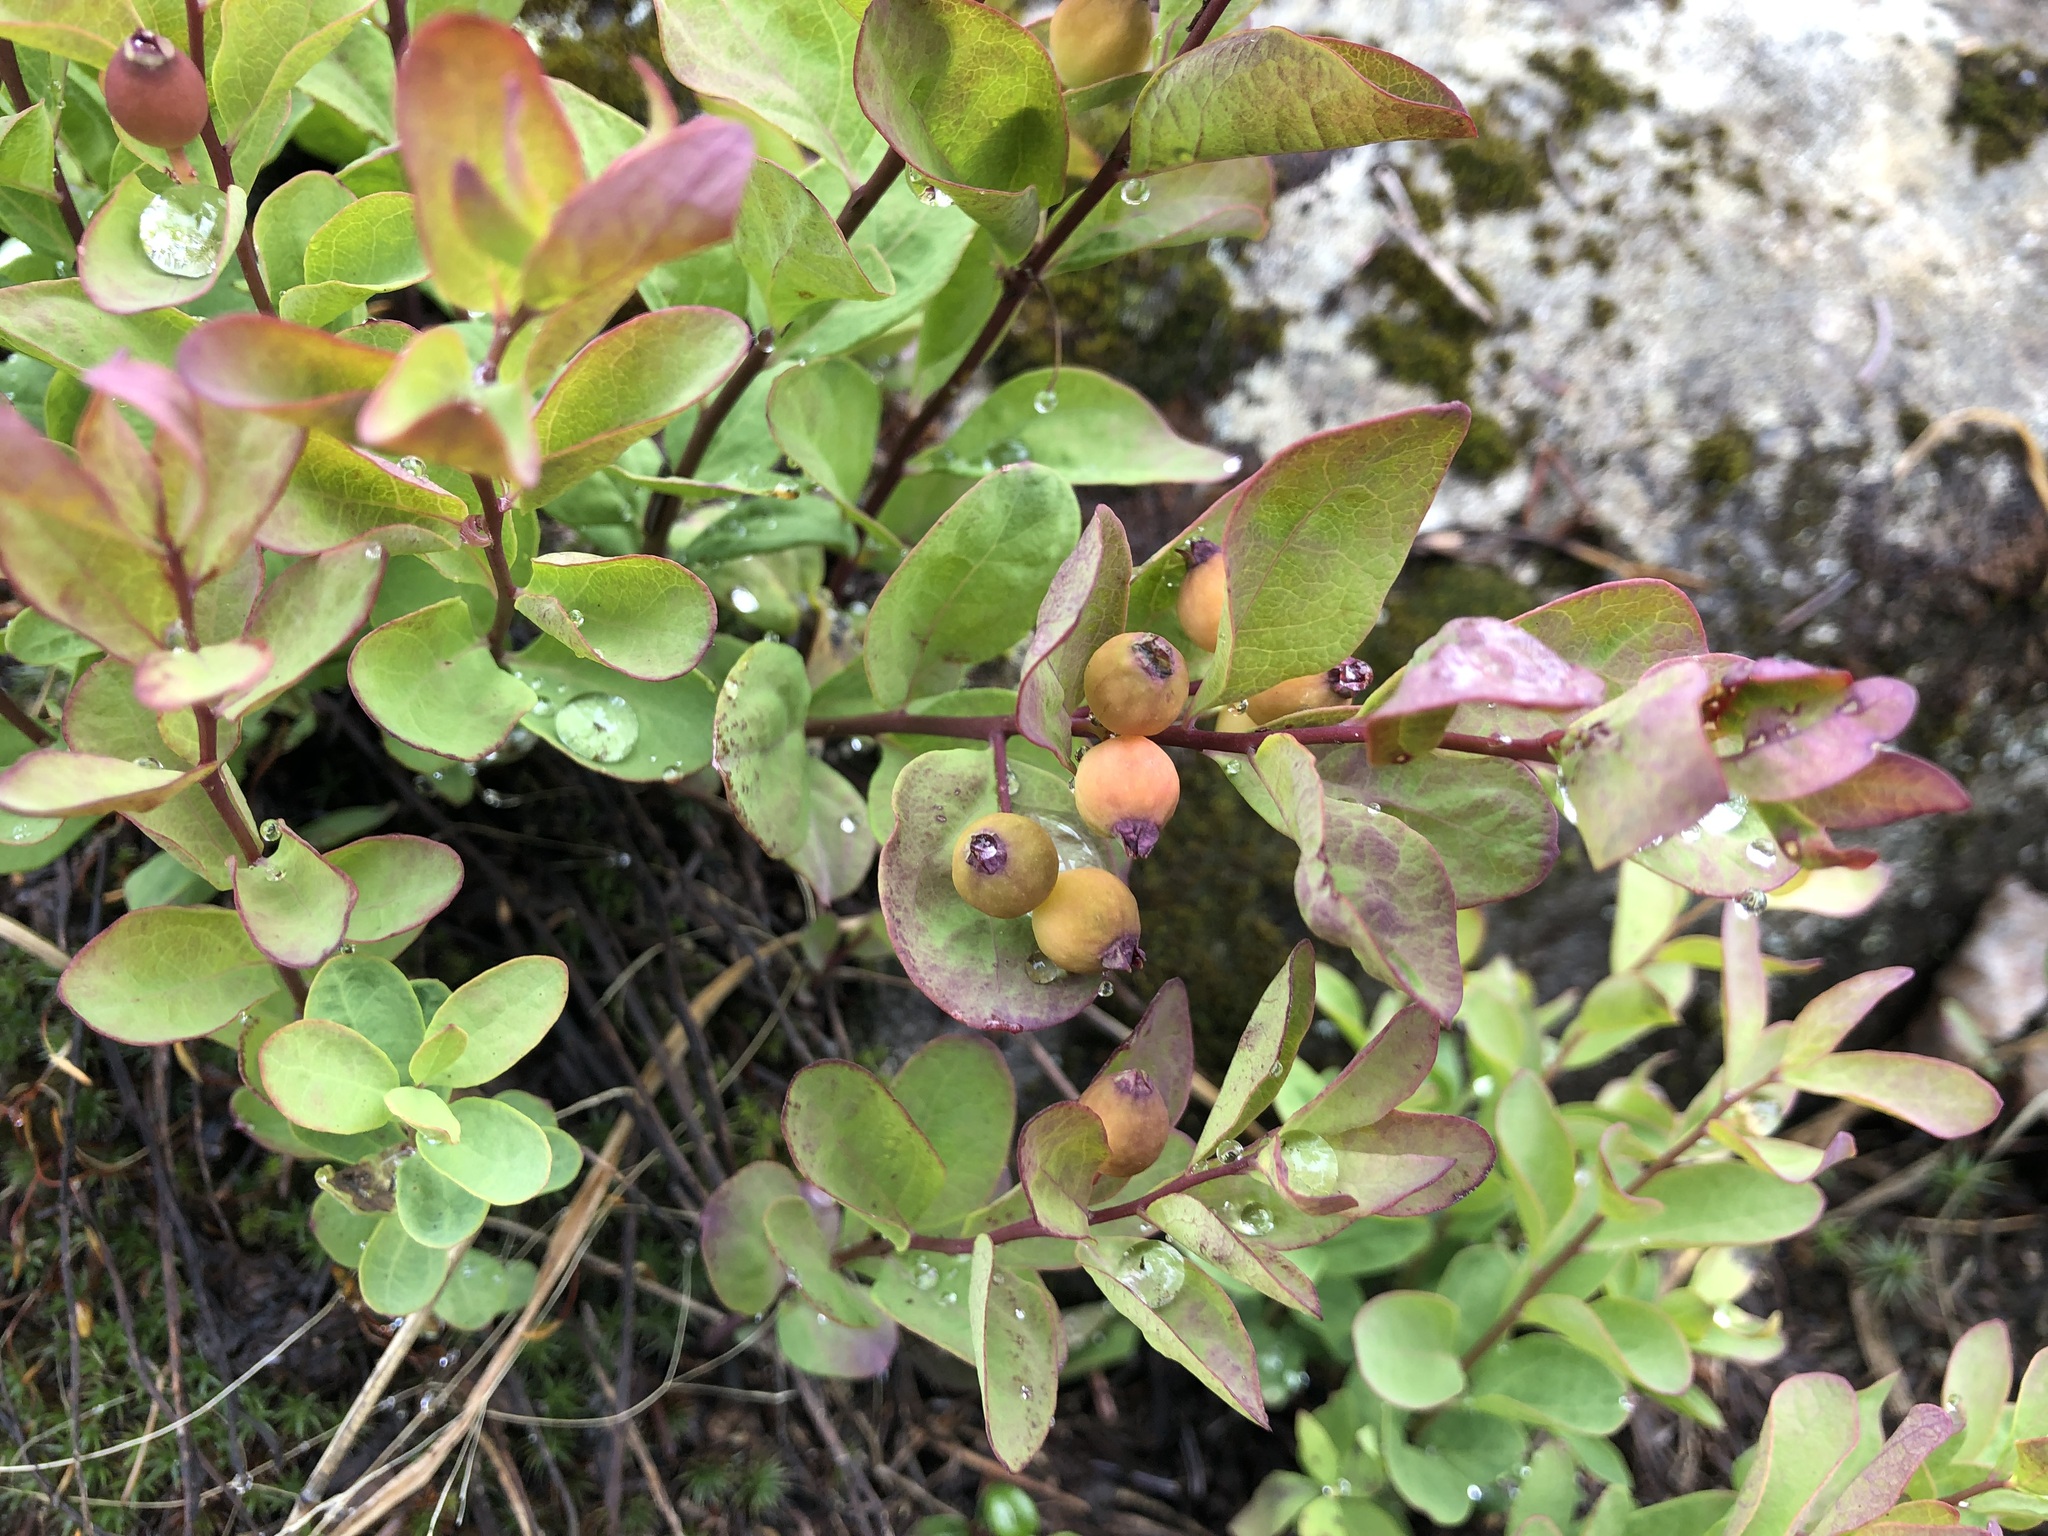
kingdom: Plantae
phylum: Tracheophyta
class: Magnoliopsida
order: Santalales
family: Comandraceae
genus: Geocaulon
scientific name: Geocaulon lividum
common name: Earthberry
